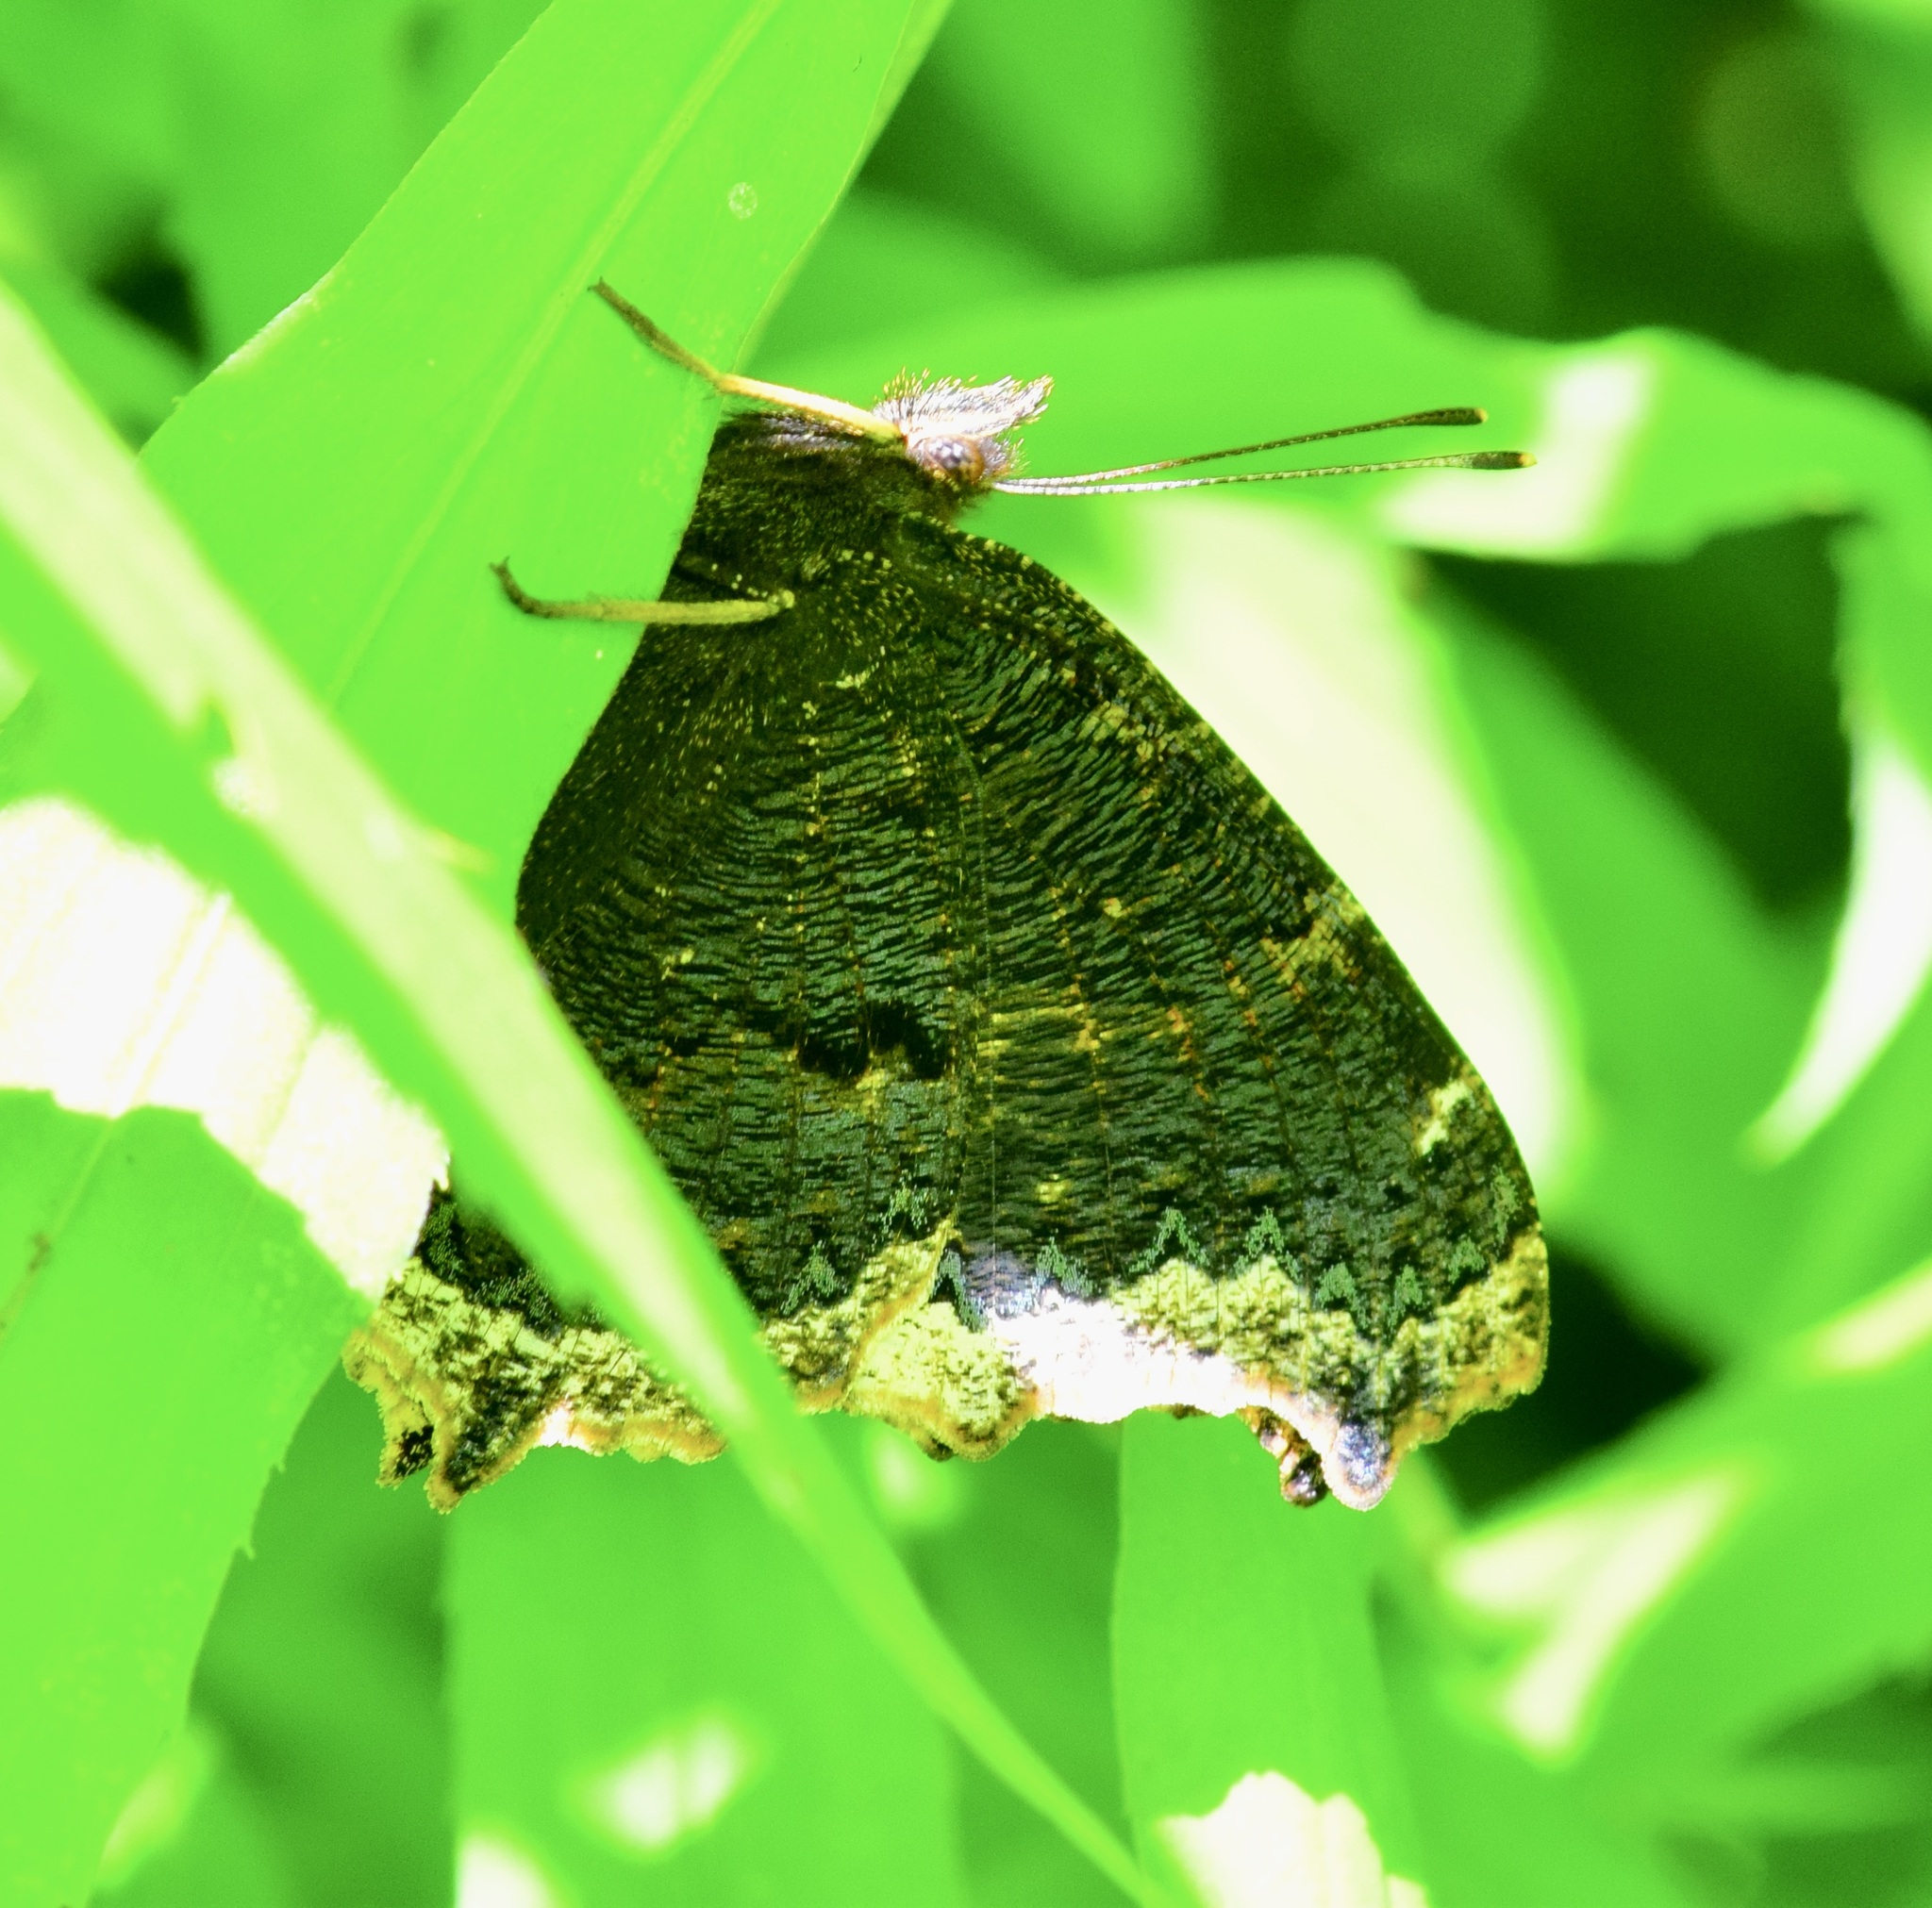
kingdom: Animalia
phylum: Arthropoda
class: Insecta
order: Lepidoptera
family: Nymphalidae
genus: Nymphalis
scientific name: Nymphalis antiopa
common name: Camberwell beauty
